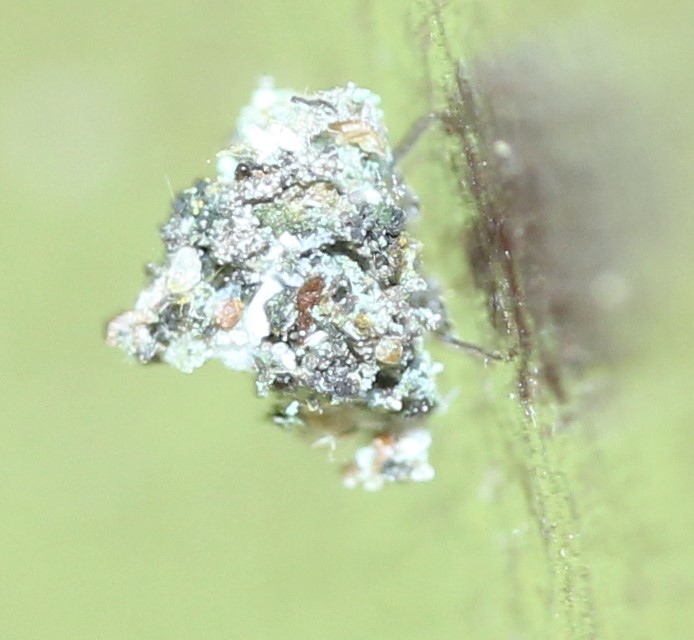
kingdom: Animalia
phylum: Arthropoda
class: Insecta
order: Neuroptera
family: Chrysopidae
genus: Leucochrysa
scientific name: Leucochrysa pavida
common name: Lichen-carrying green lacewing
